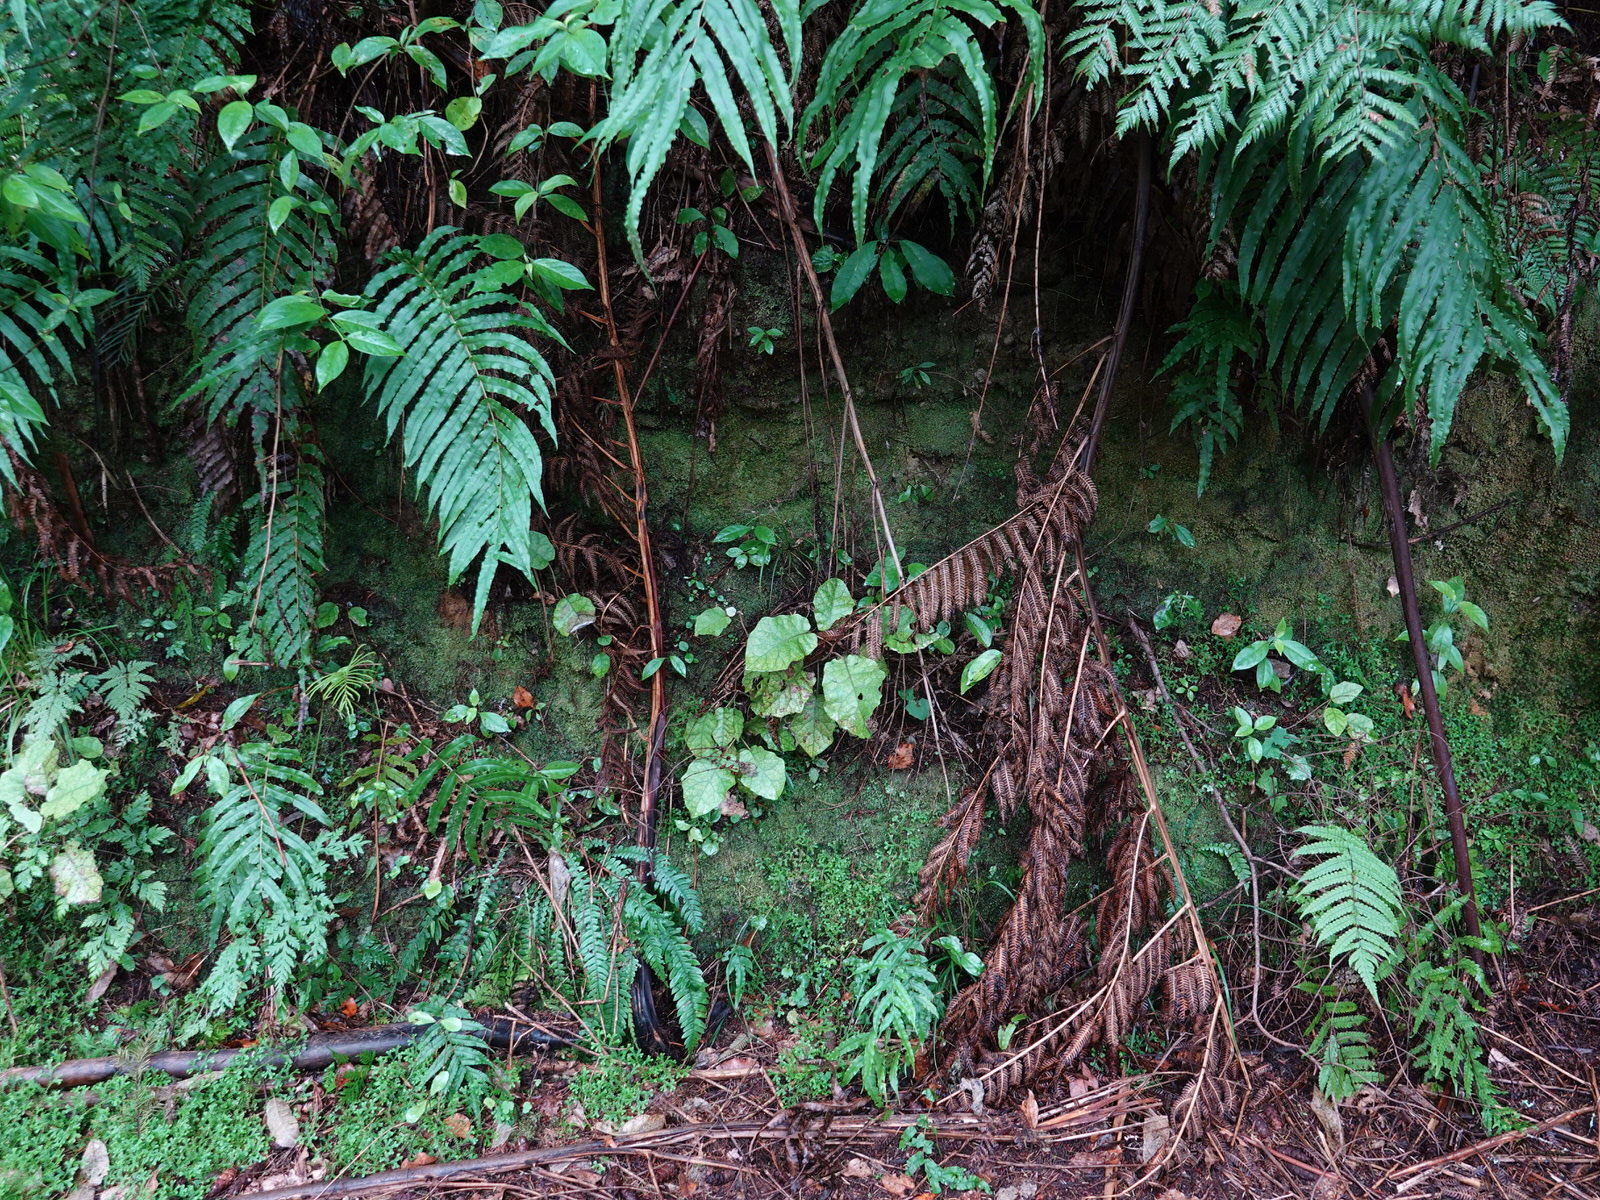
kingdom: Animalia
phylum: Arthropoda
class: Insecta
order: Diptera
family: Keroplatidae
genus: Arachnocampa
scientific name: Arachnocampa luminosa
